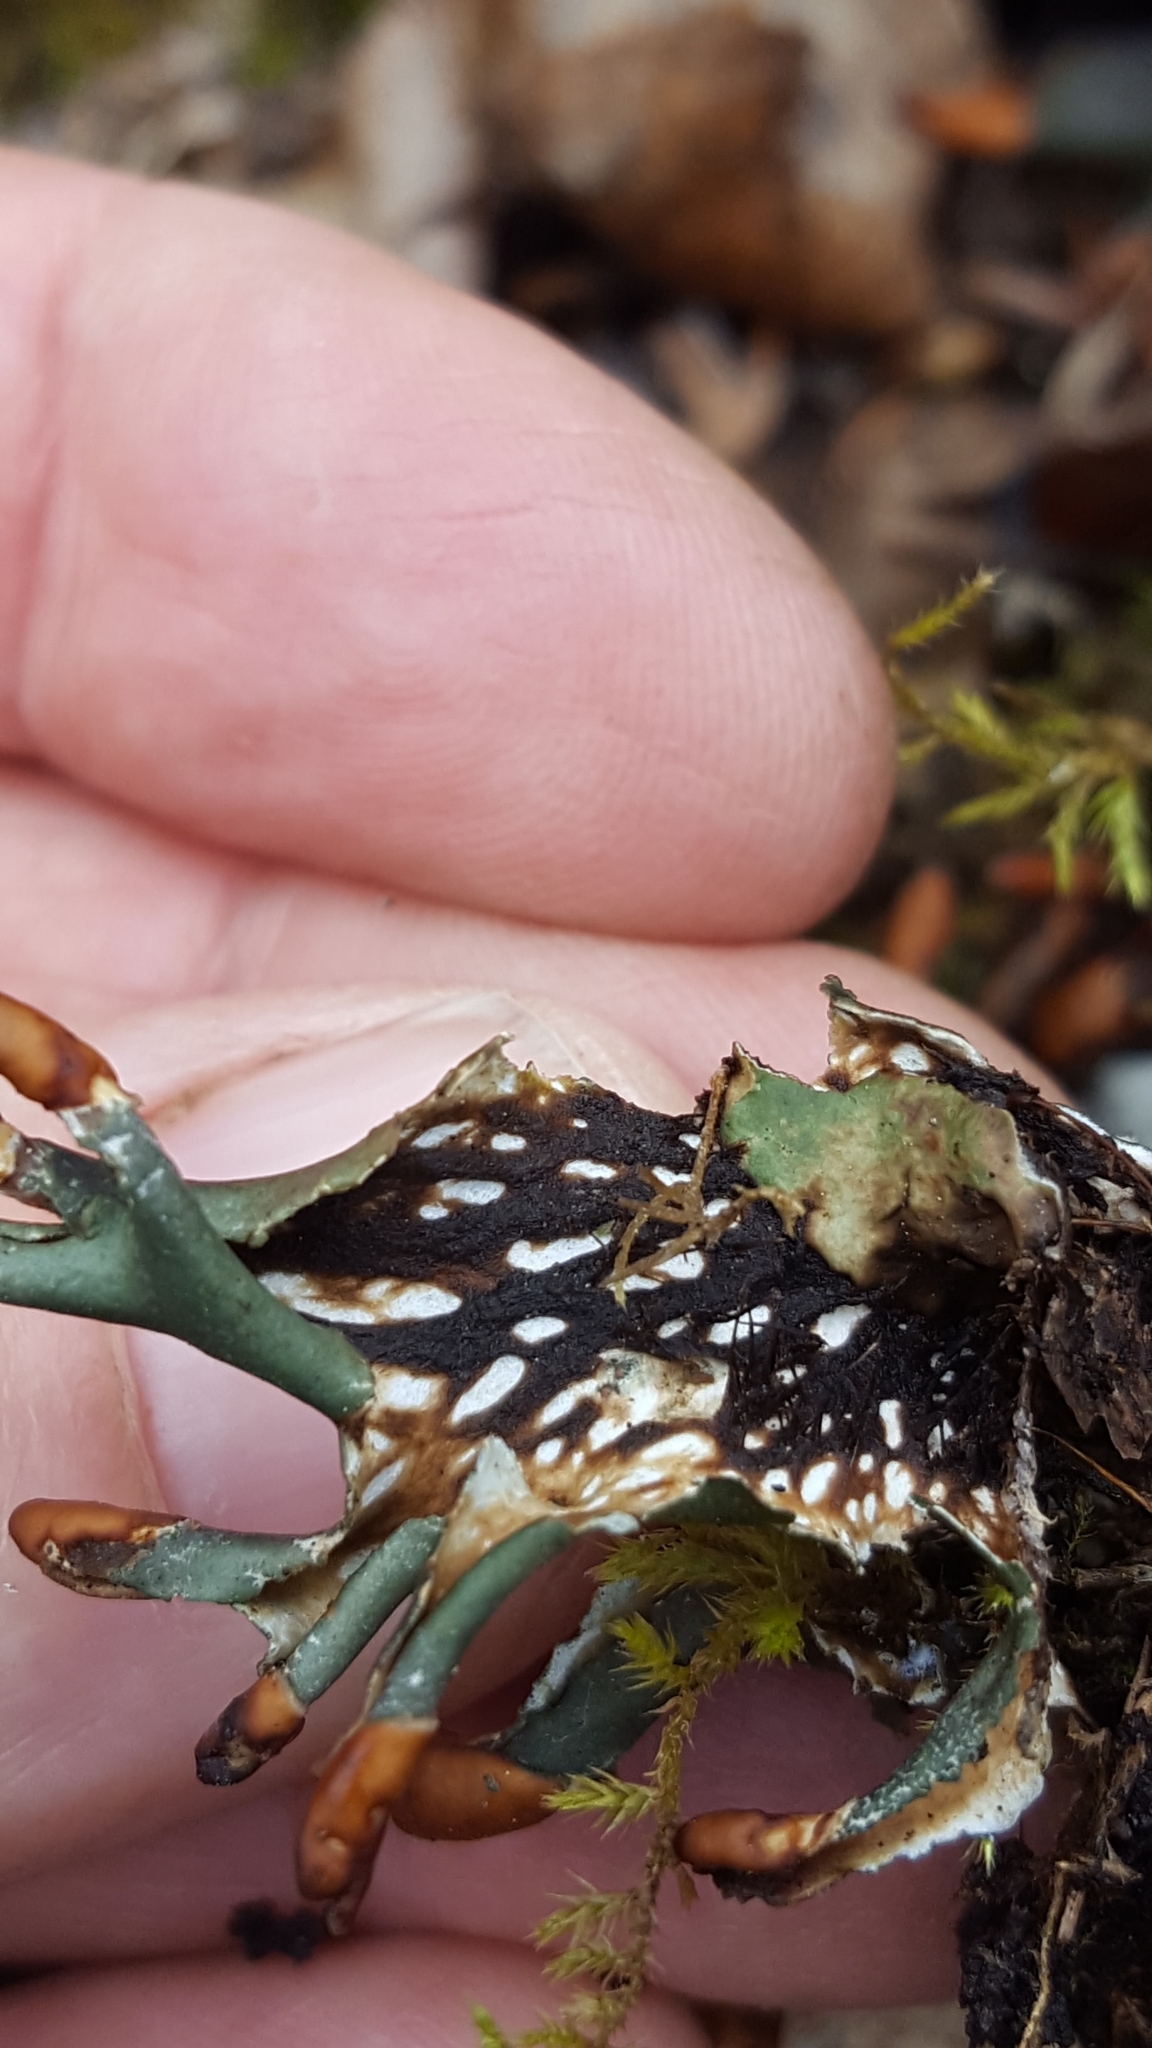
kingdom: Fungi
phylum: Ascomycota
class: Lecanoromycetes
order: Peltigerales
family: Peltigeraceae
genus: Peltigera
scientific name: Peltigera polydactylon
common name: Many-fruited pelt lichen
